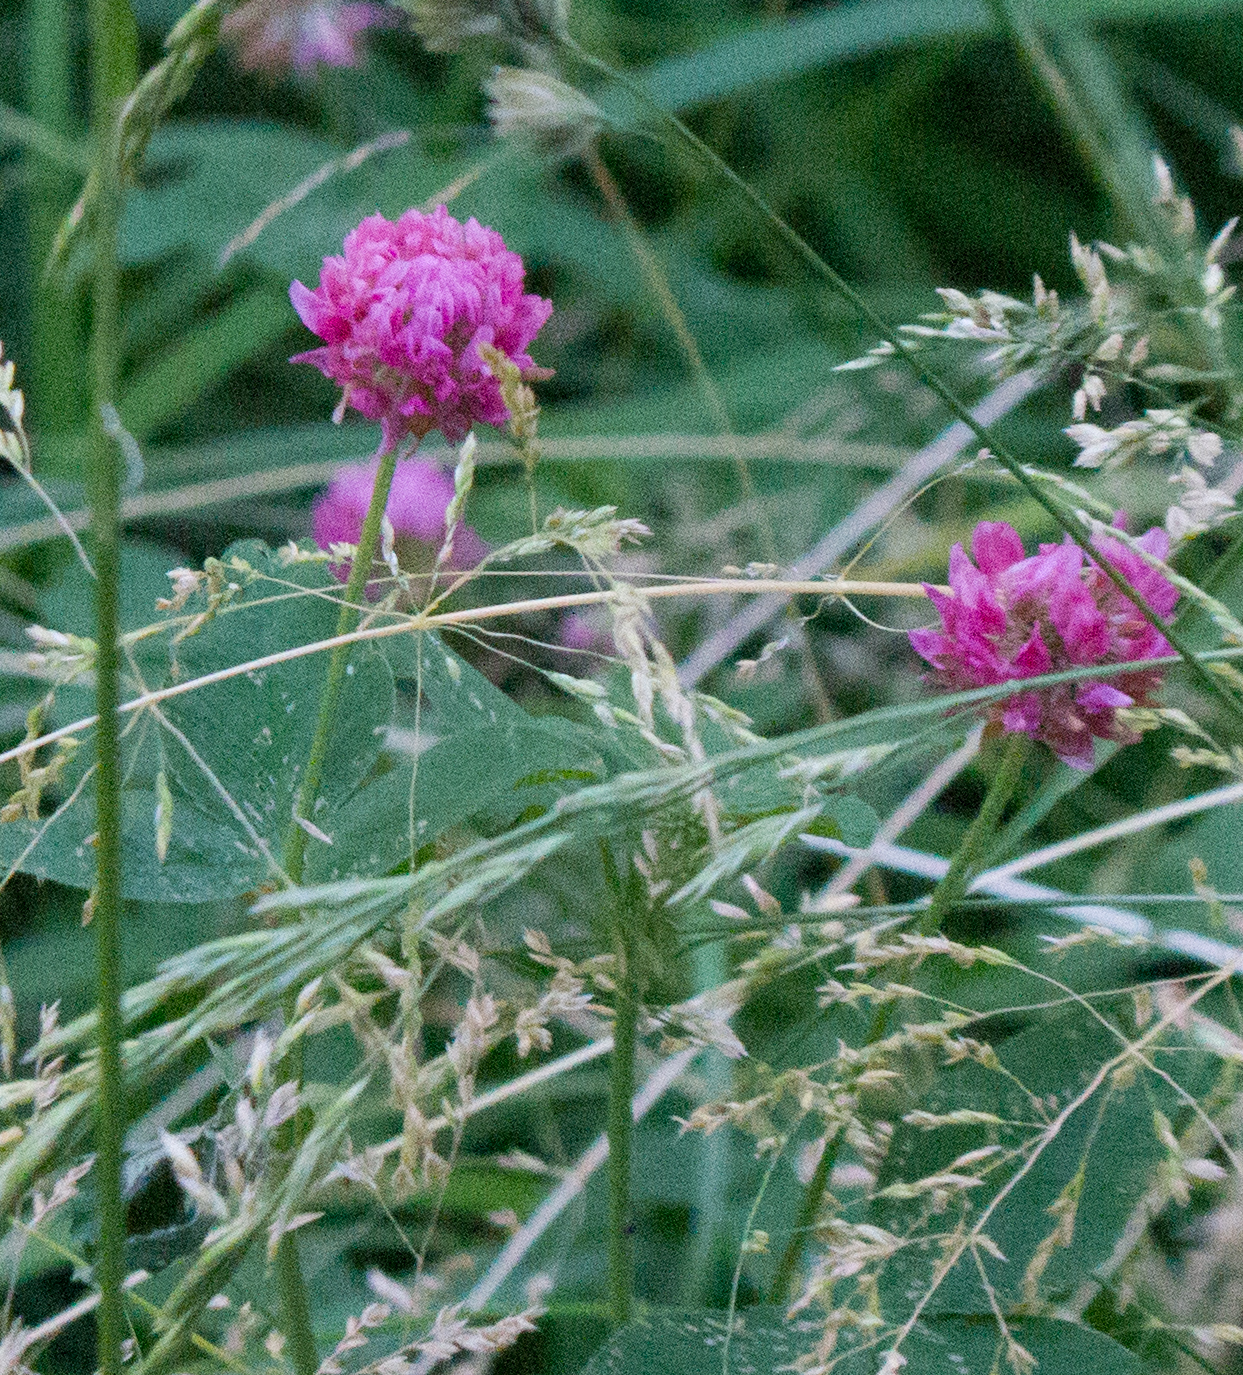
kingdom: Plantae
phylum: Tracheophyta
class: Magnoliopsida
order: Fabales
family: Fabaceae
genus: Trifolium
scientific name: Trifolium hybridum
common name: Alsike clover
